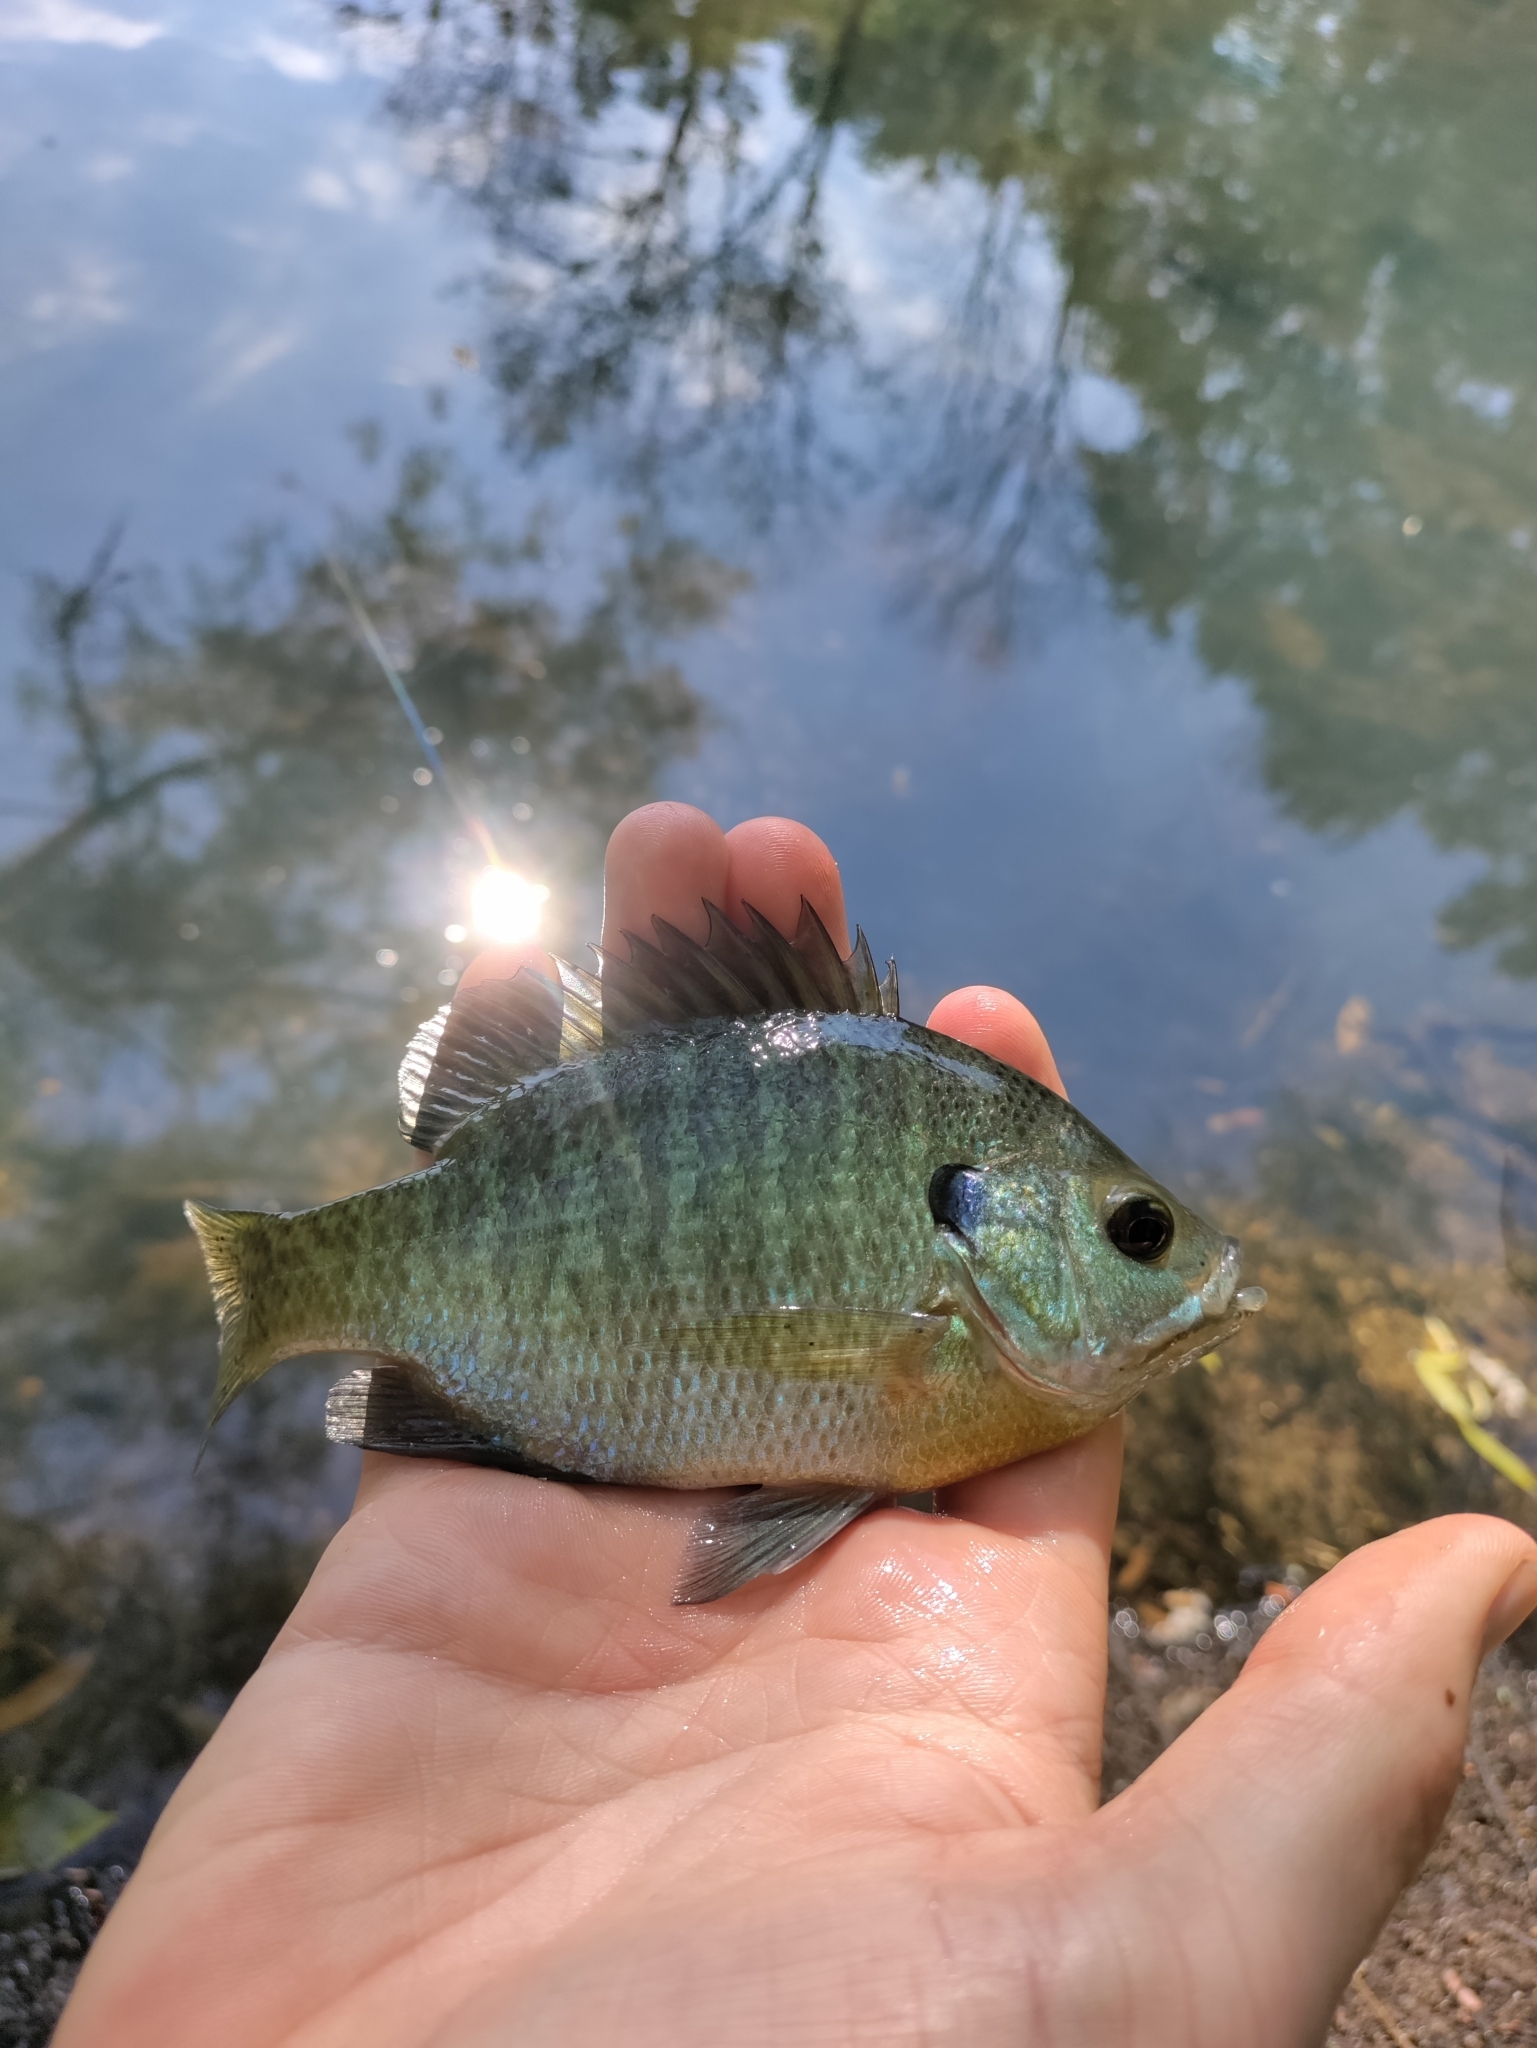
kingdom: Animalia
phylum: Chordata
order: Perciformes
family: Centrarchidae
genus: Lepomis
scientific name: Lepomis macrochirus
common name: Bluegill
